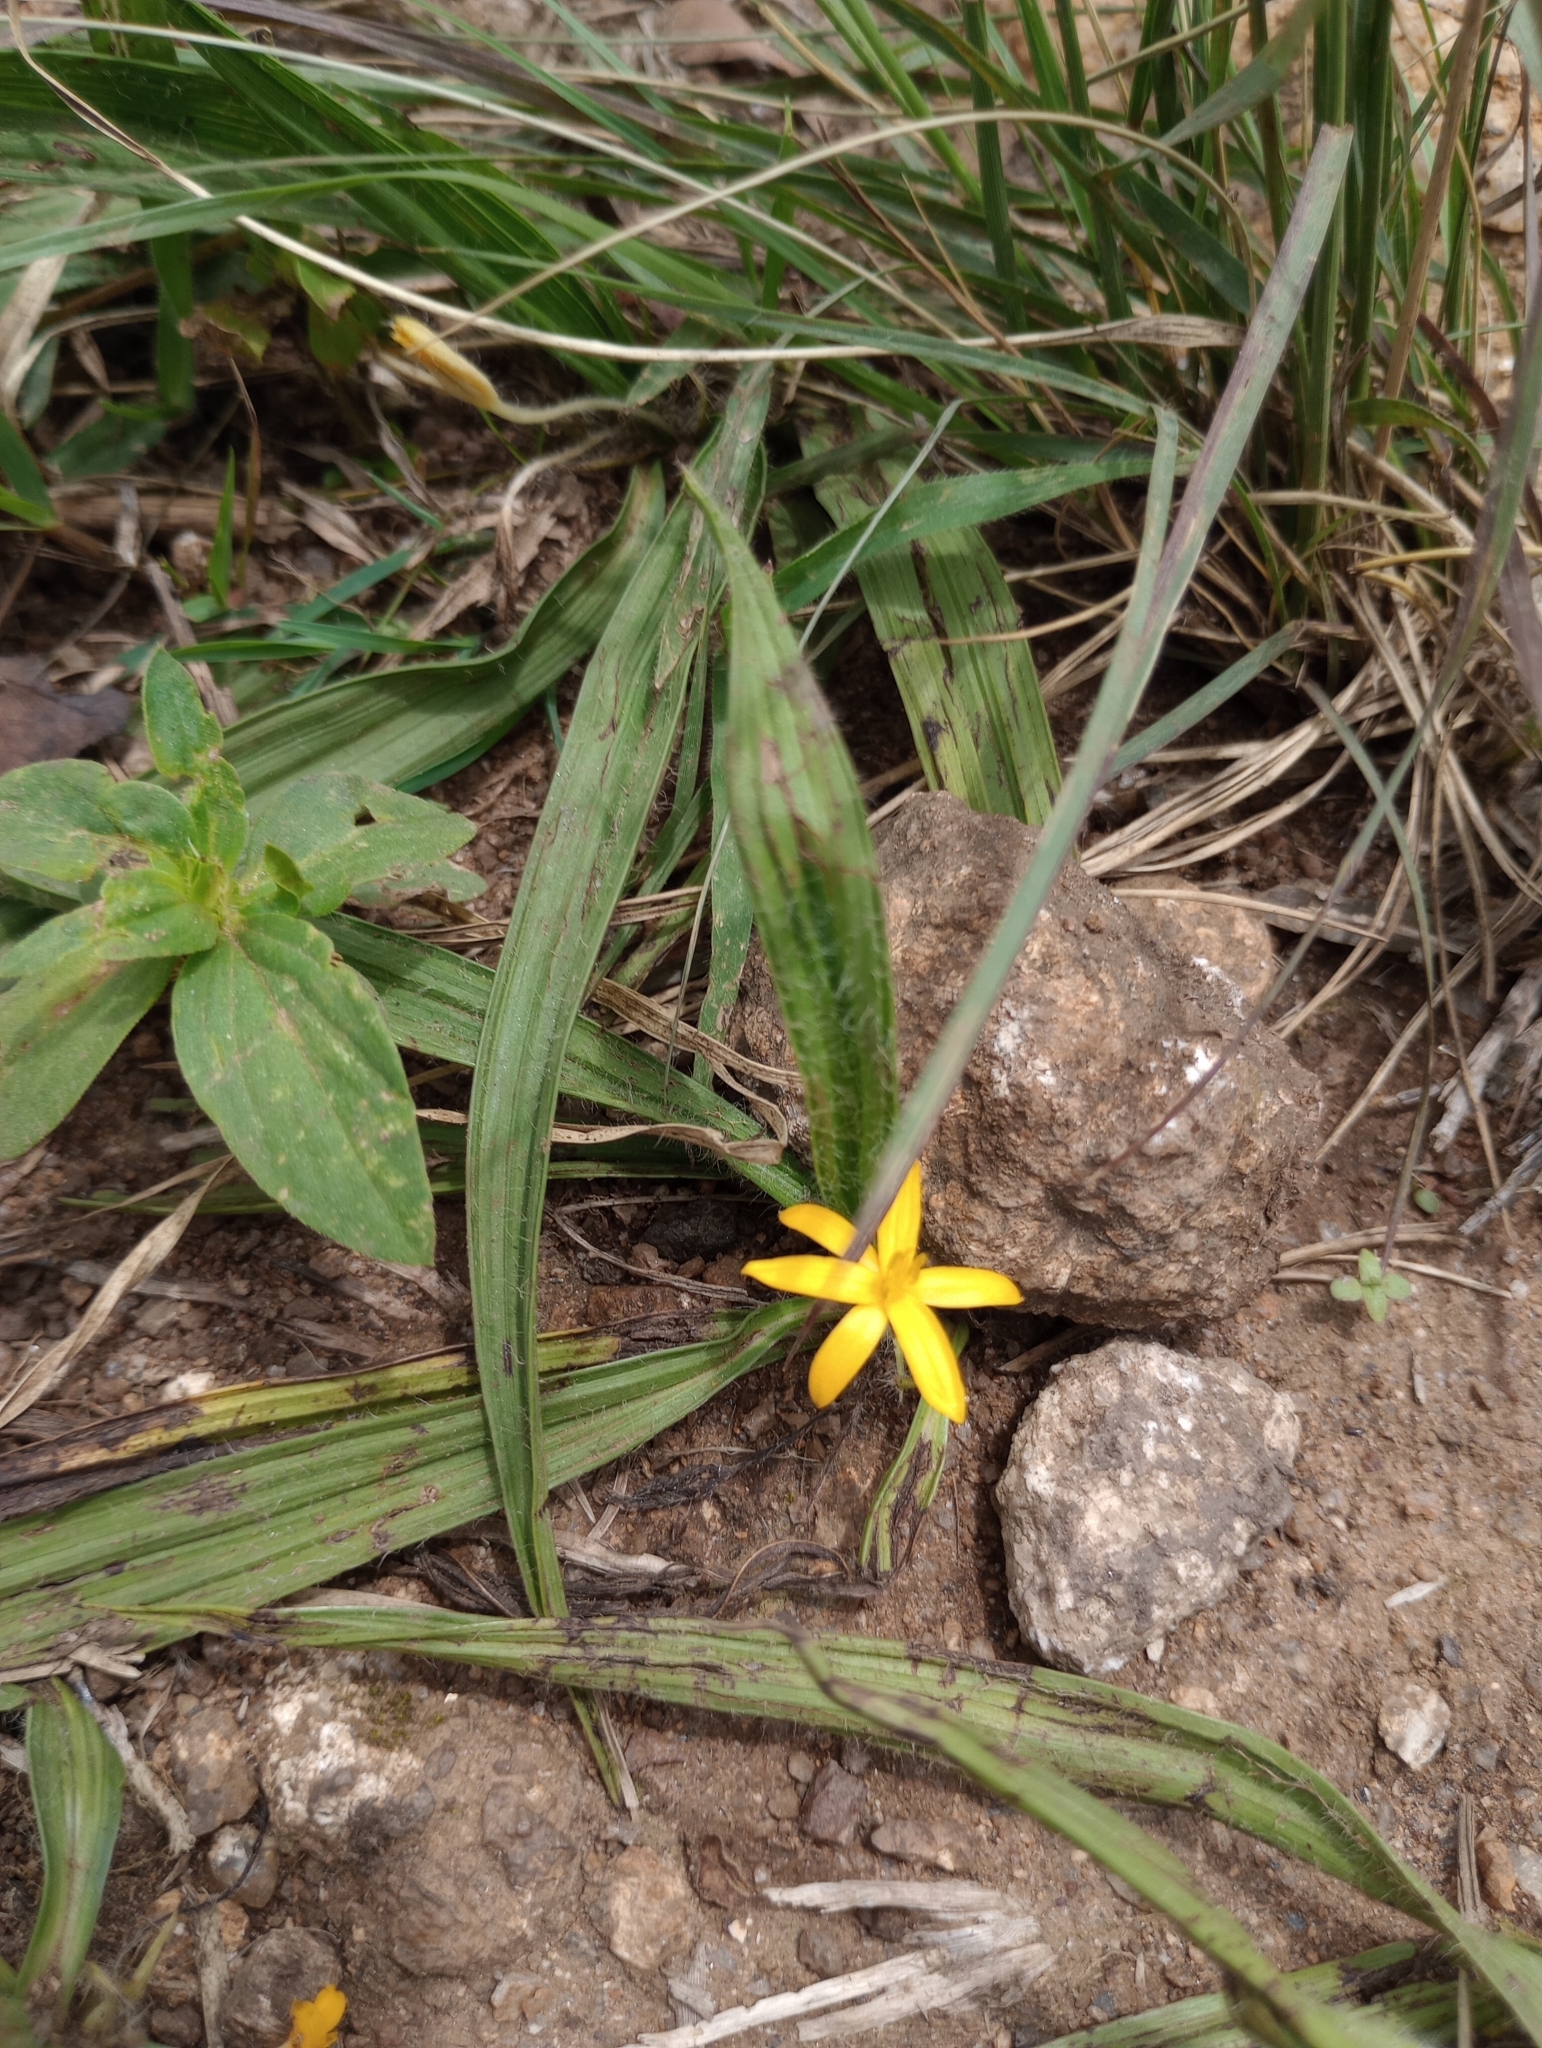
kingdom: Plantae
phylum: Tracheophyta
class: Liliopsida
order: Asparagales
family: Hypoxidaceae
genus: Curculigo
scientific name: Curculigo orchioides
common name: Golden eye-grass
